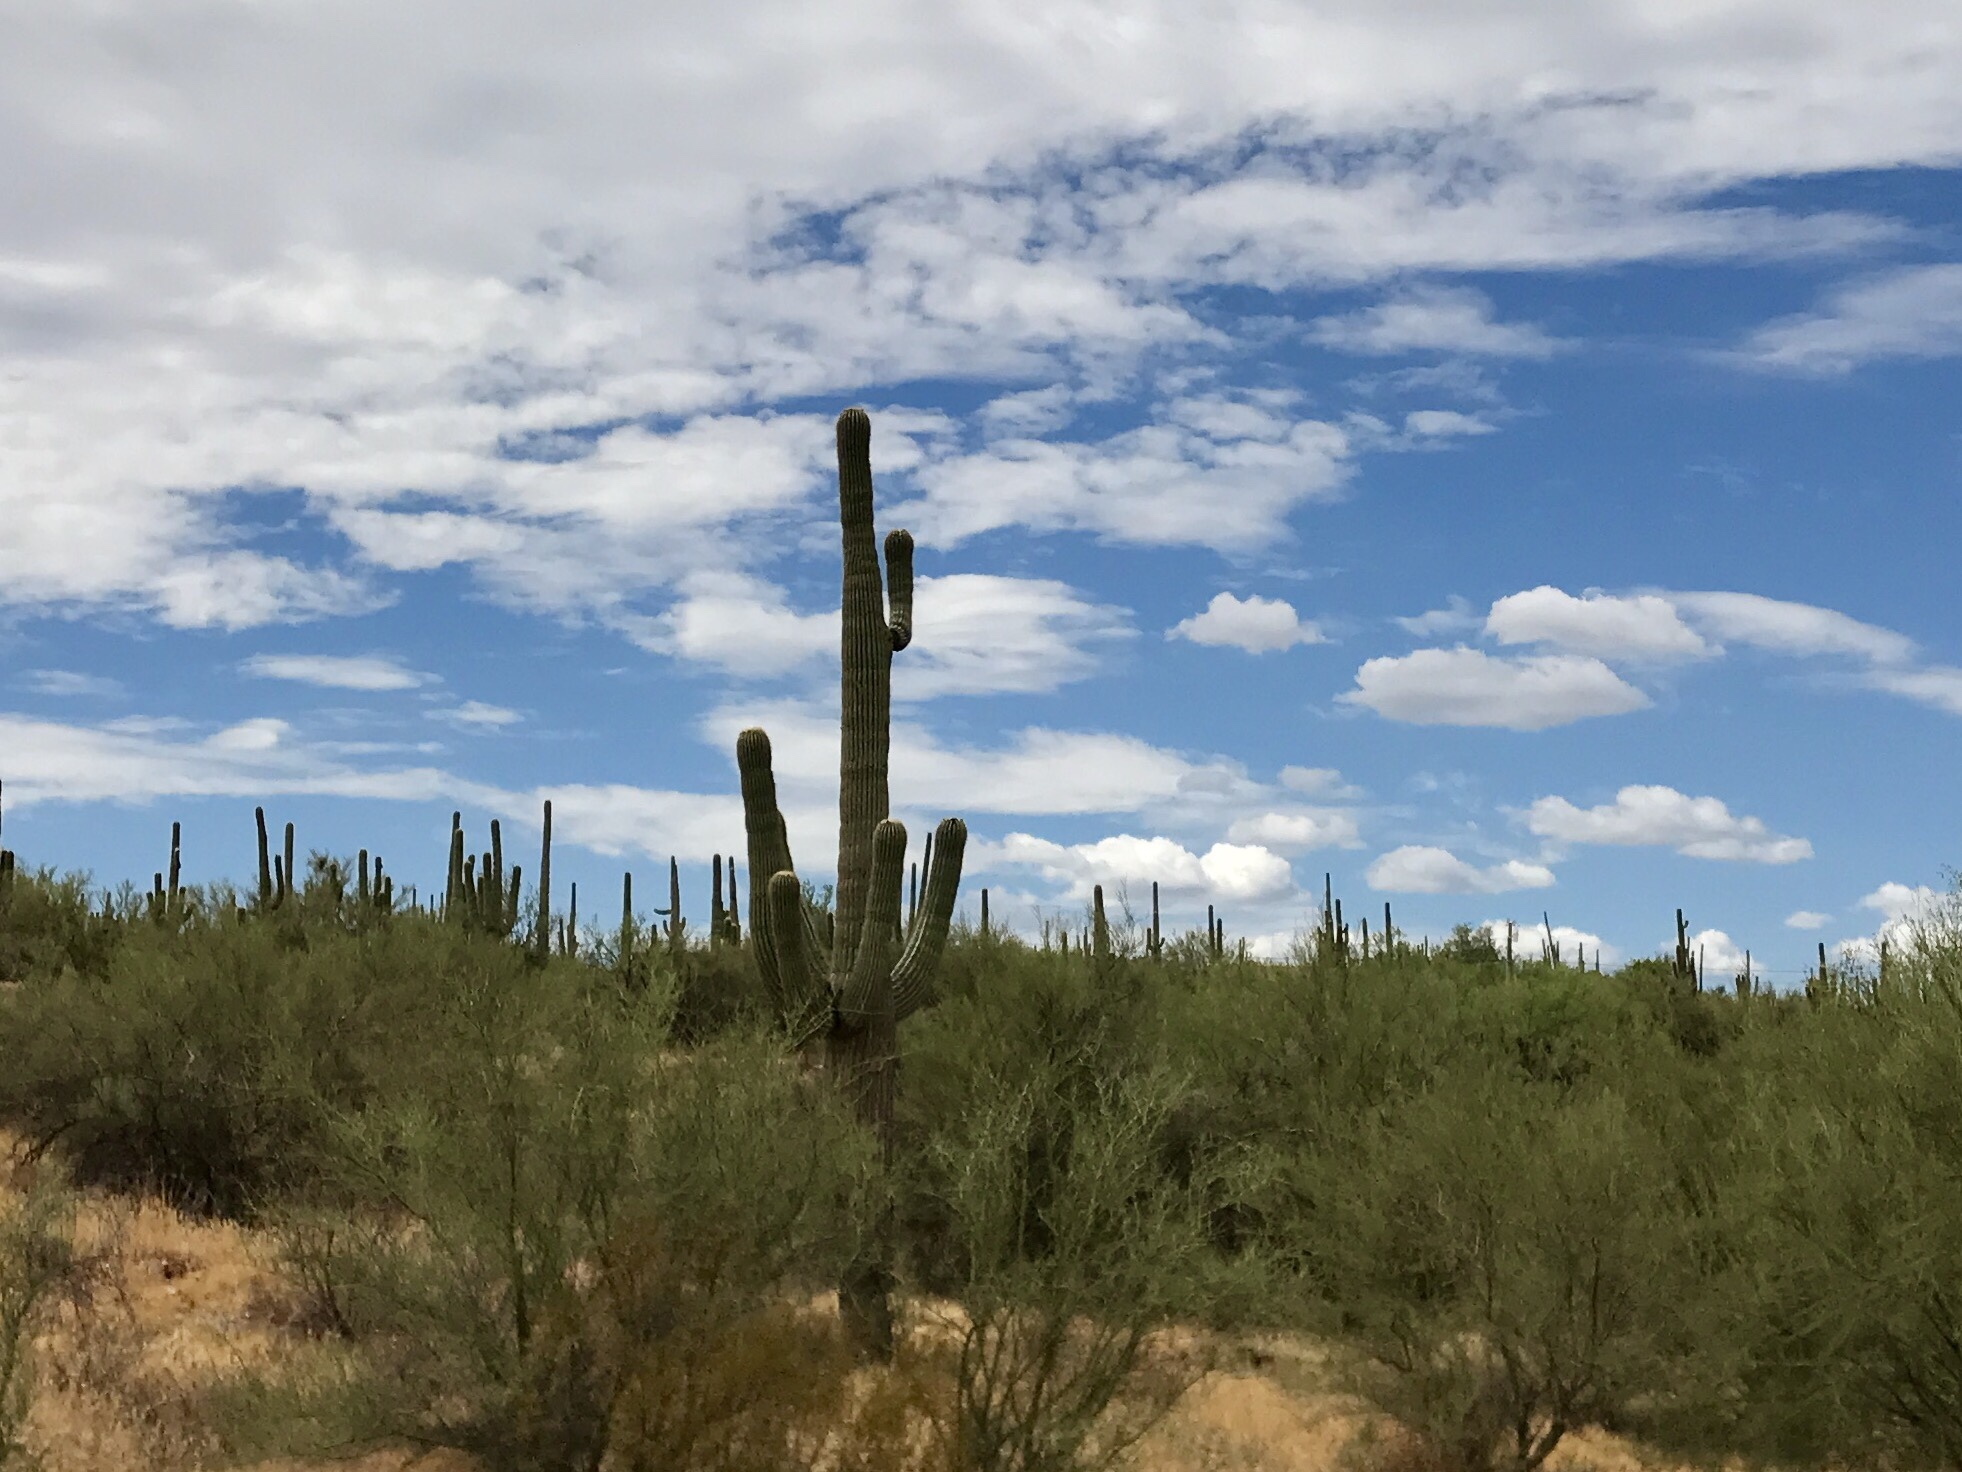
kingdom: Plantae
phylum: Tracheophyta
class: Magnoliopsida
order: Caryophyllales
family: Cactaceae
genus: Carnegiea
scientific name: Carnegiea gigantea
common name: Saguaro
